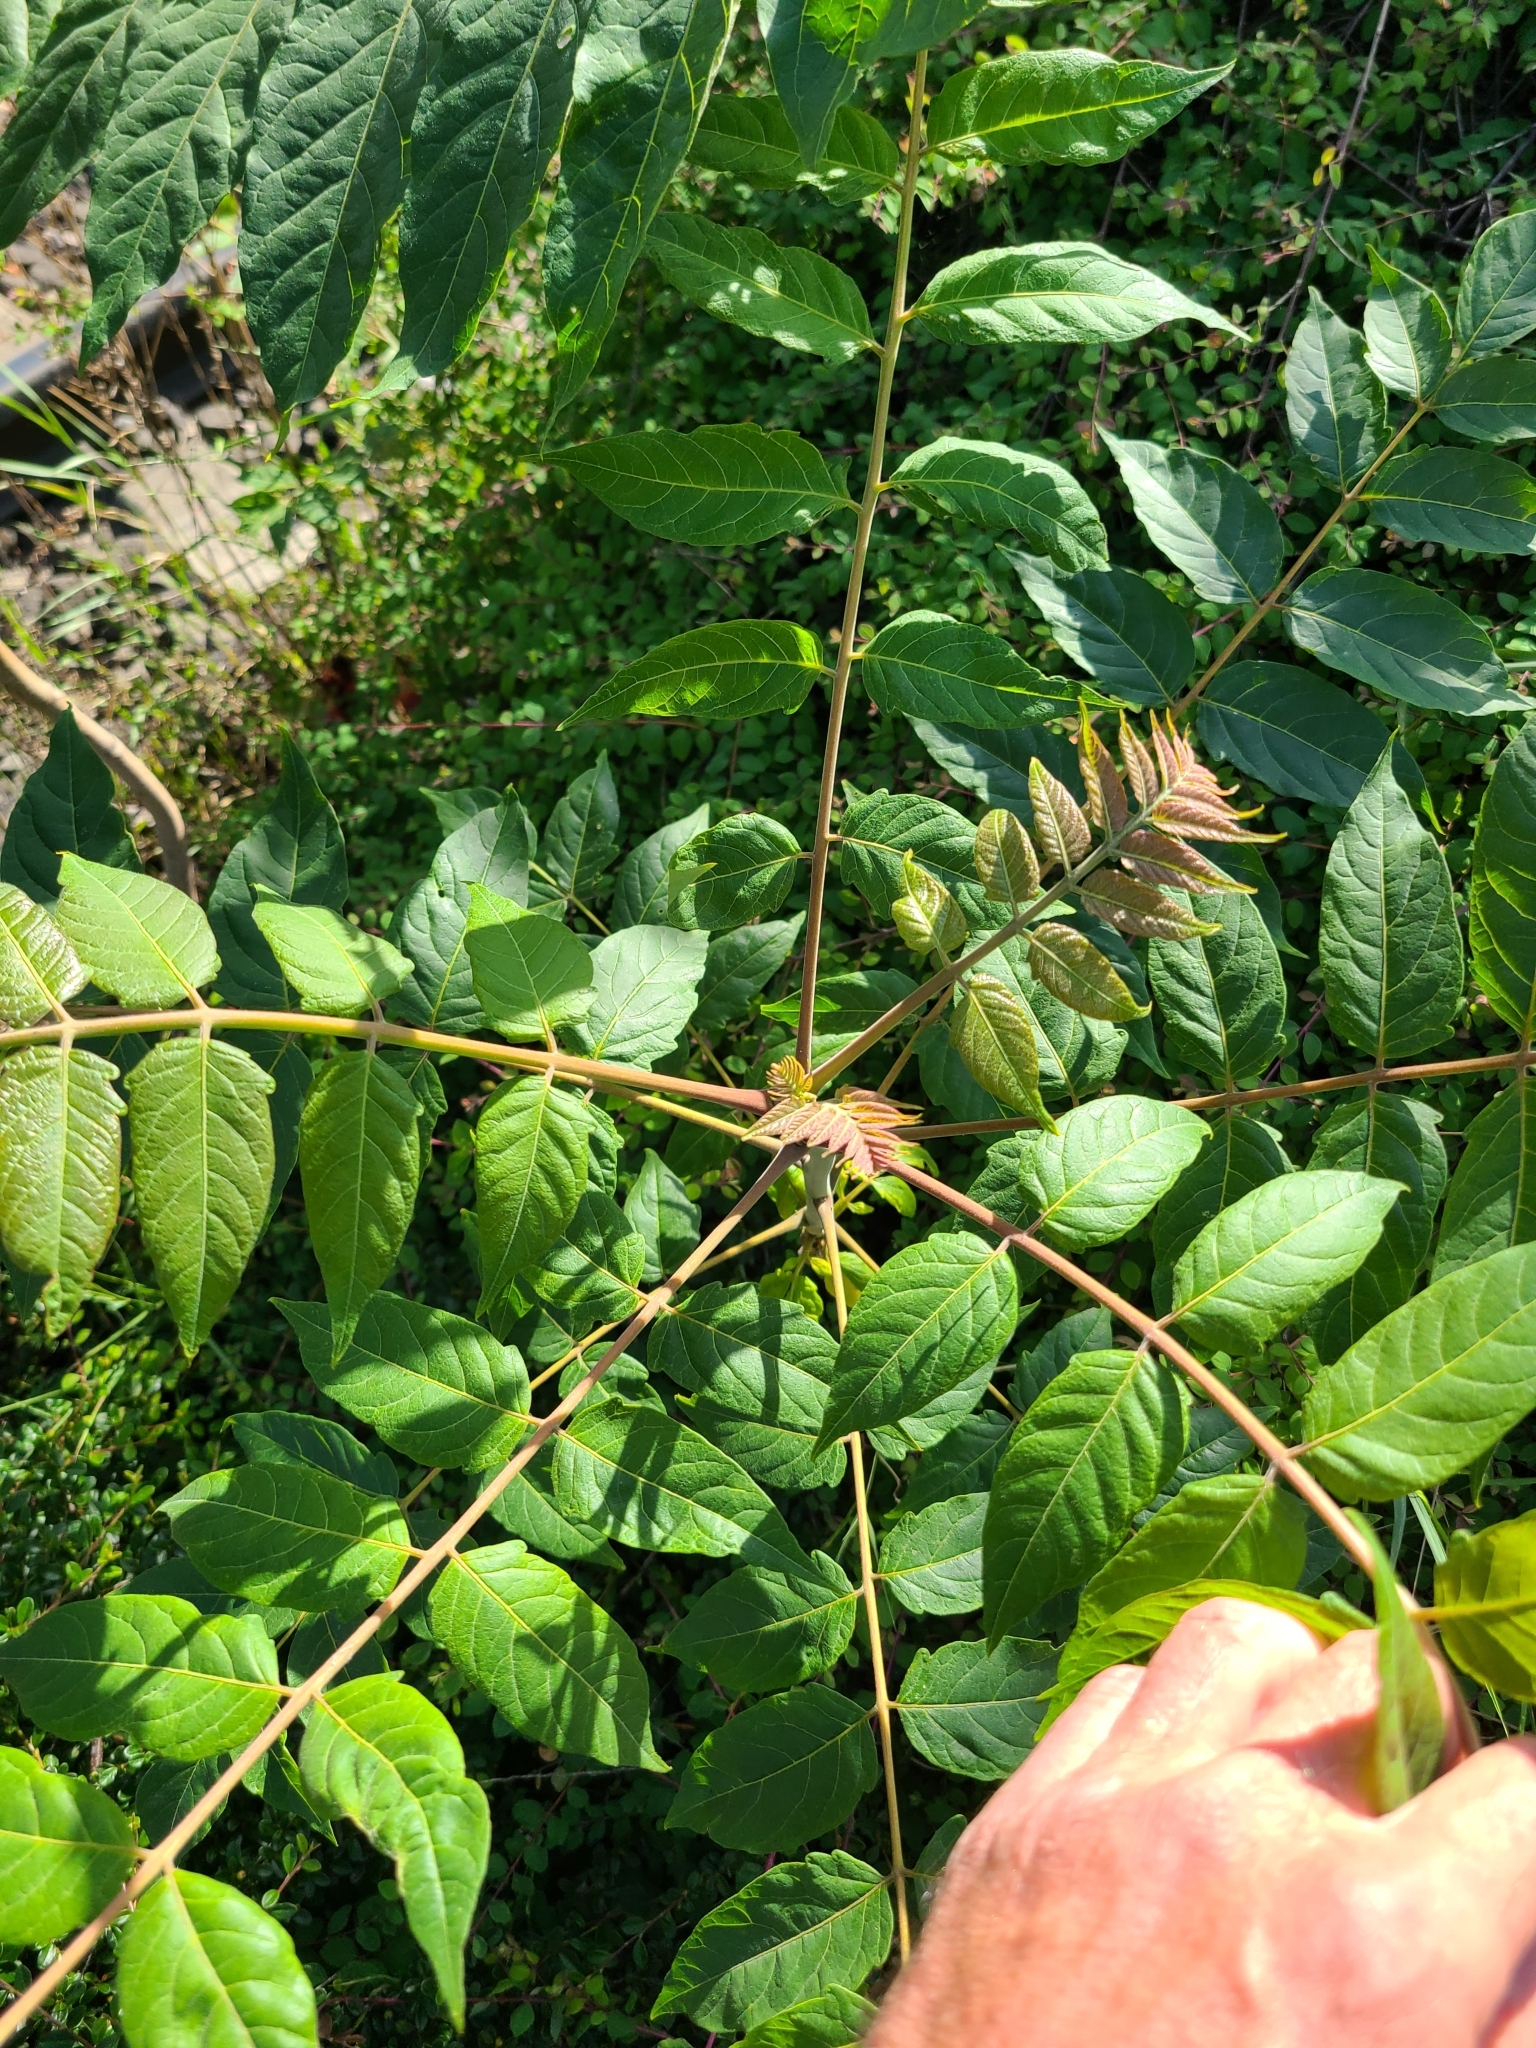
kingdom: Plantae
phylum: Tracheophyta
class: Magnoliopsida
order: Sapindales
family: Simaroubaceae
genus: Ailanthus
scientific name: Ailanthus altissima
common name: Tree-of-heaven
